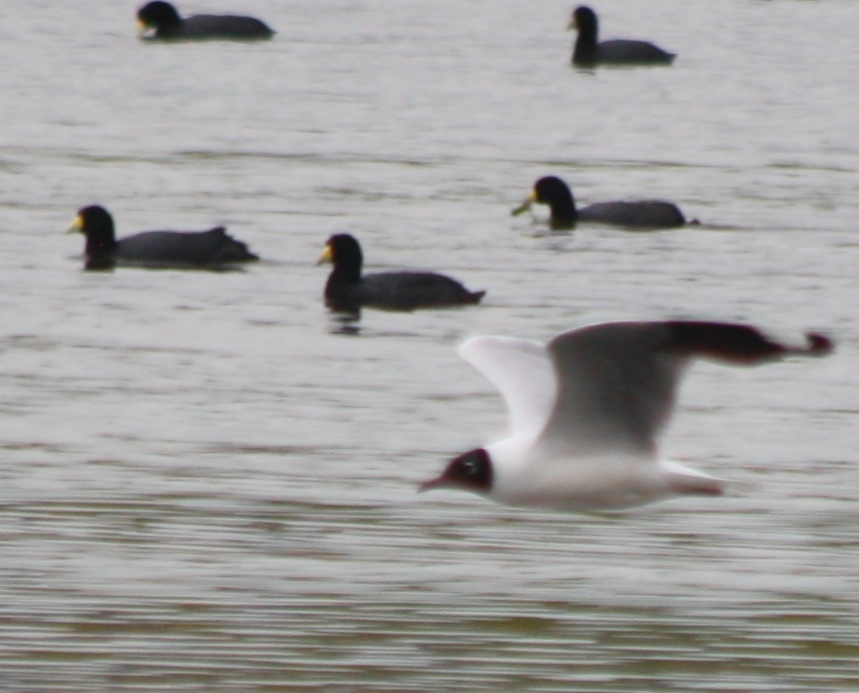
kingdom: Animalia
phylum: Chordata
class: Aves
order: Charadriiformes
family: Laridae
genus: Chroicocephalus
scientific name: Chroicocephalus serranus
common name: Andean gull
